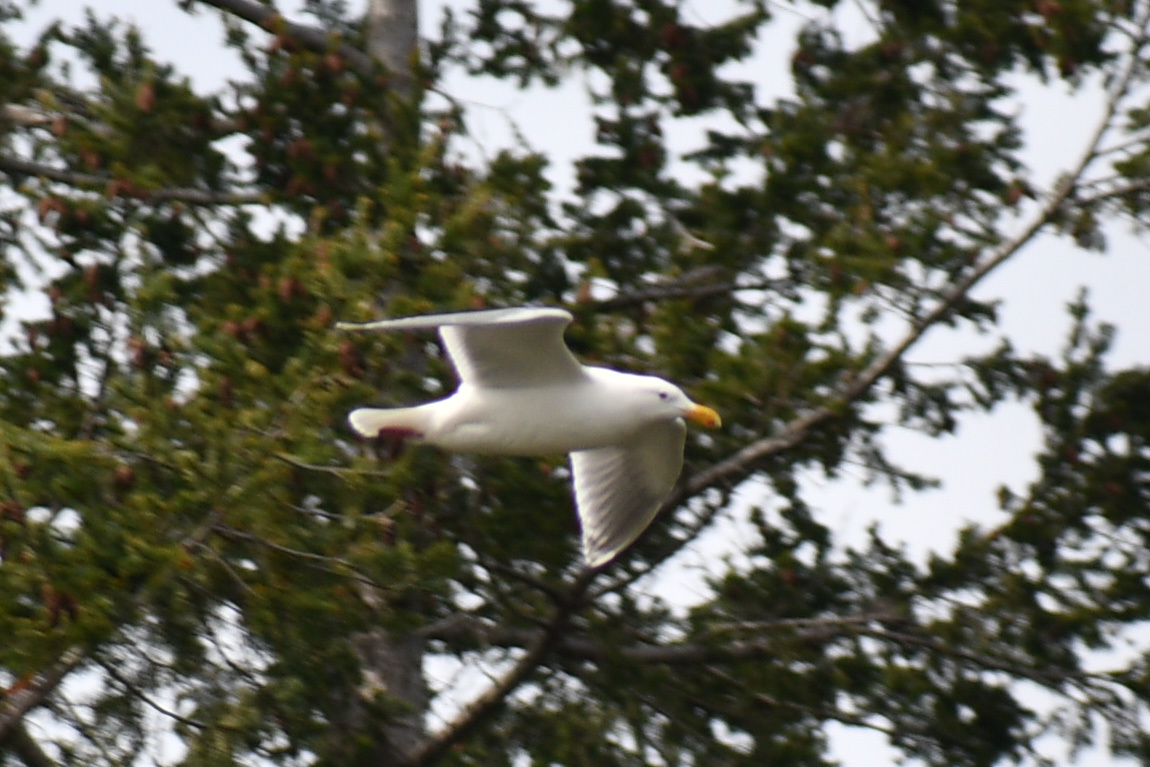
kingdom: Animalia
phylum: Chordata
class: Aves
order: Charadriiformes
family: Laridae
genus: Larus
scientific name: Larus glaucescens
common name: Glaucous-winged gull
